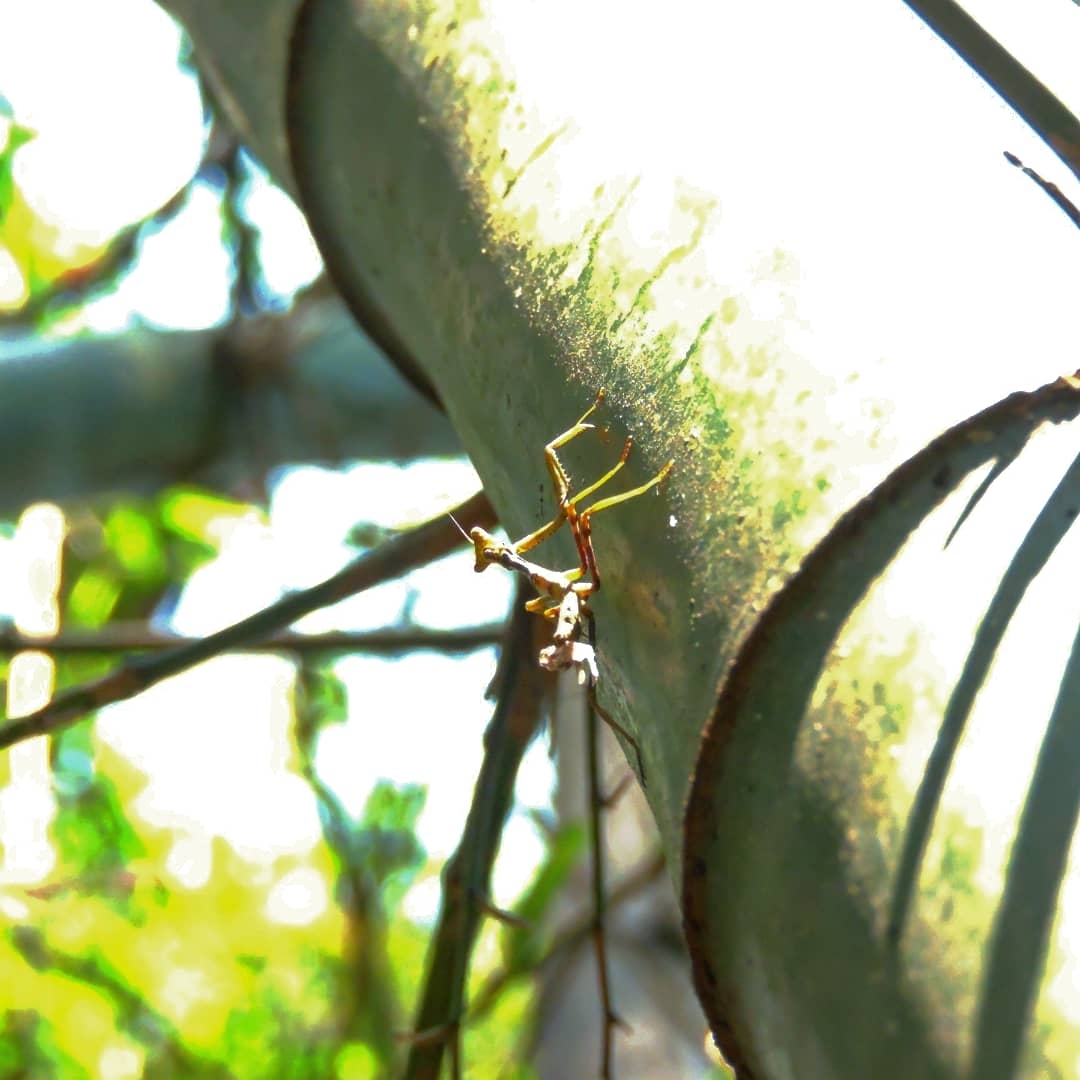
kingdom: Animalia
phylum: Arthropoda
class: Insecta
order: Mantodea
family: Photinaidae
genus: Cardioptera
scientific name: Cardioptera
